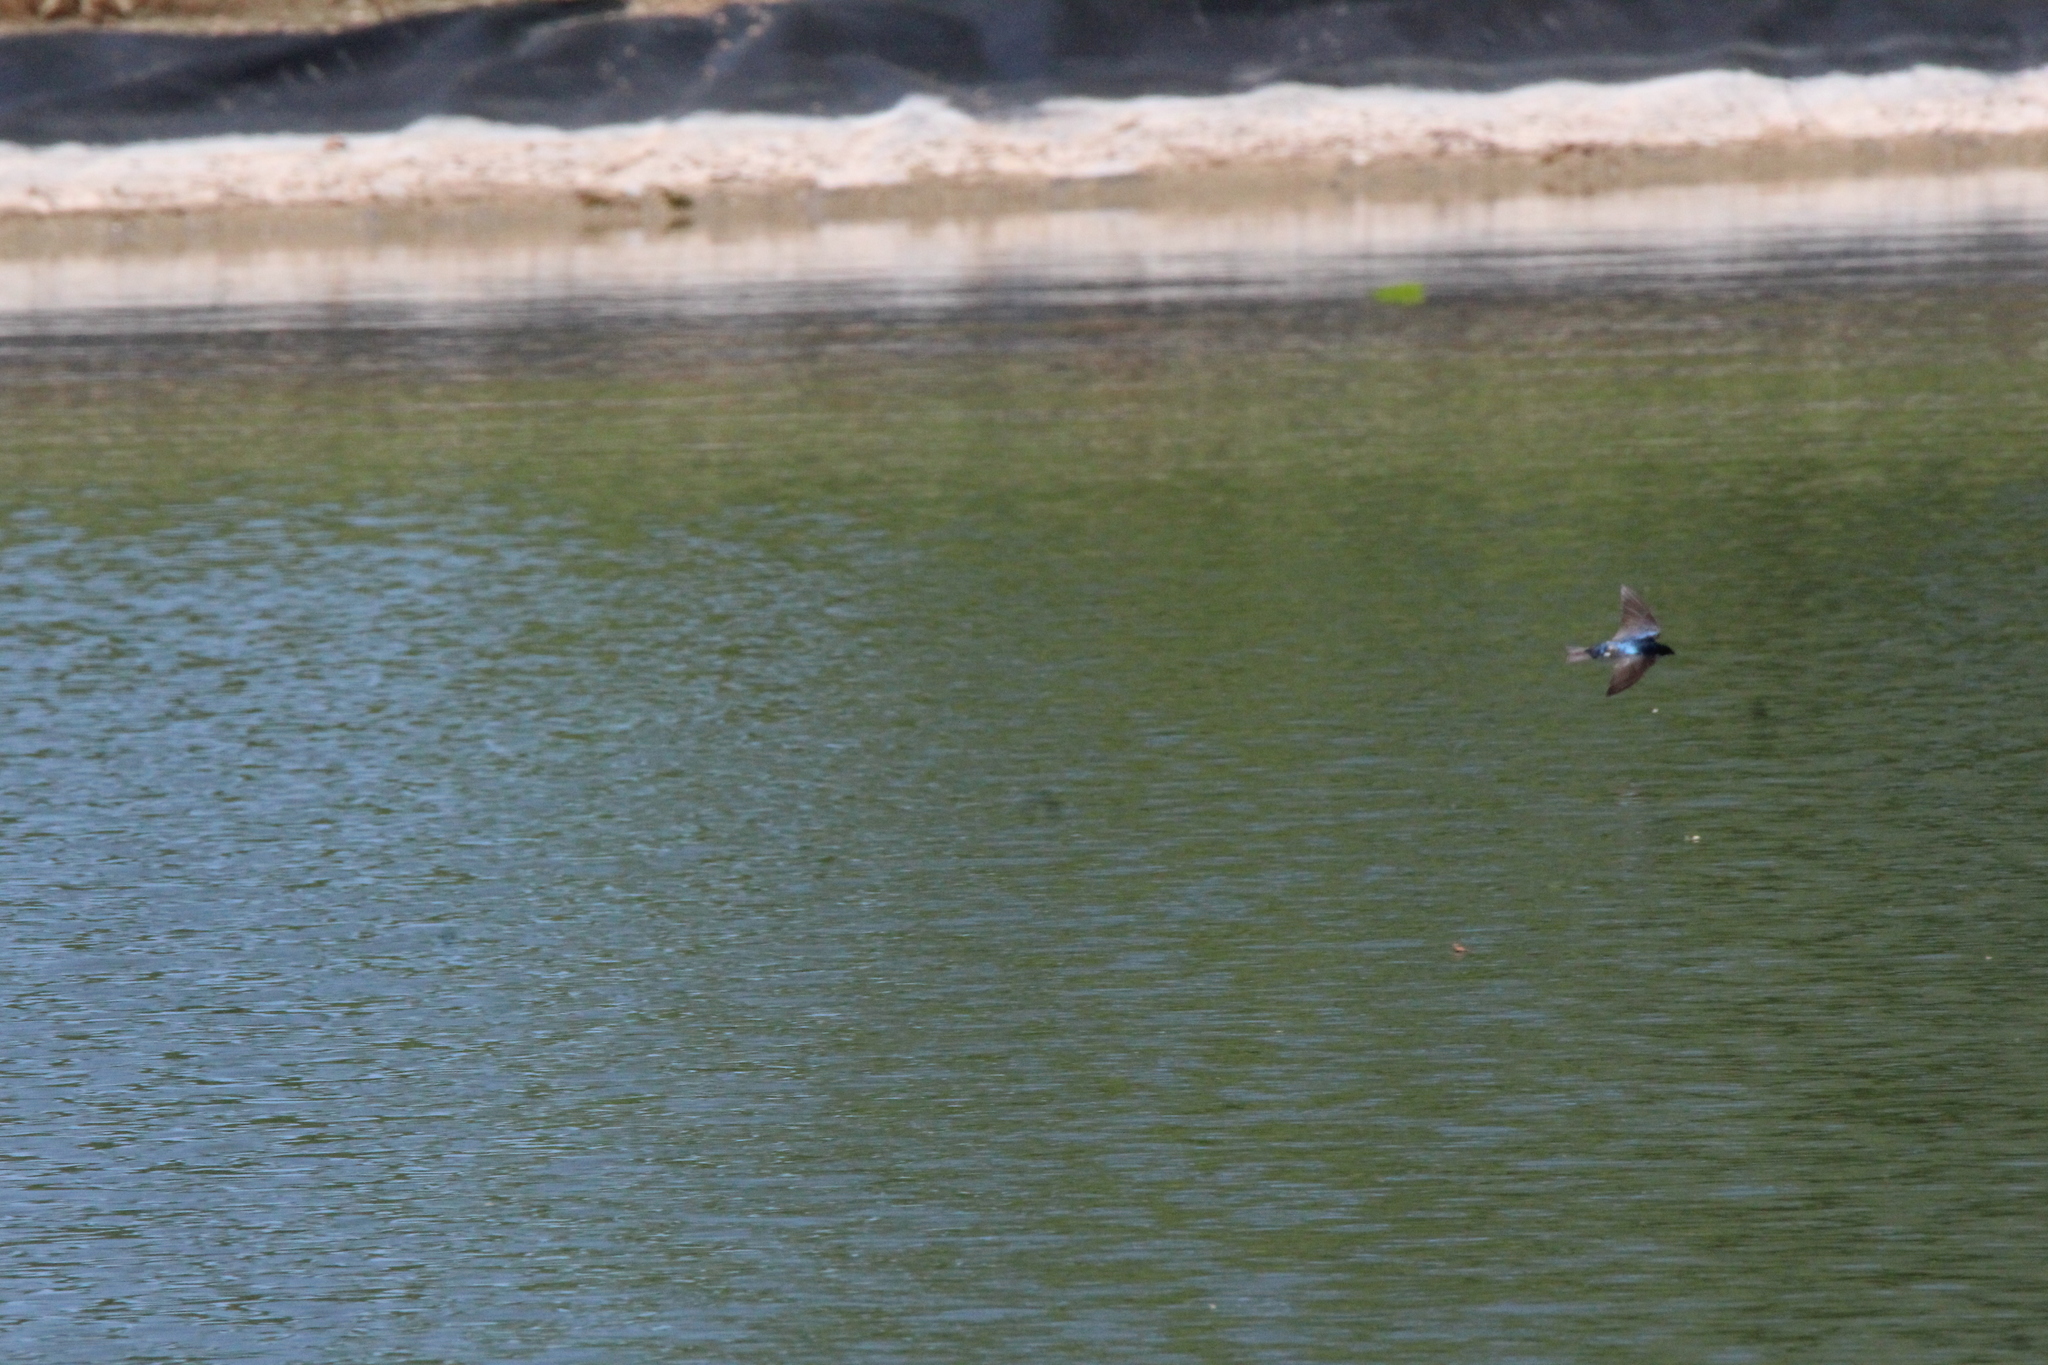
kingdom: Animalia
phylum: Chordata
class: Aves
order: Passeriformes
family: Hirundinidae
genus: Tachycineta
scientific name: Tachycineta bicolor
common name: Tree swallow
